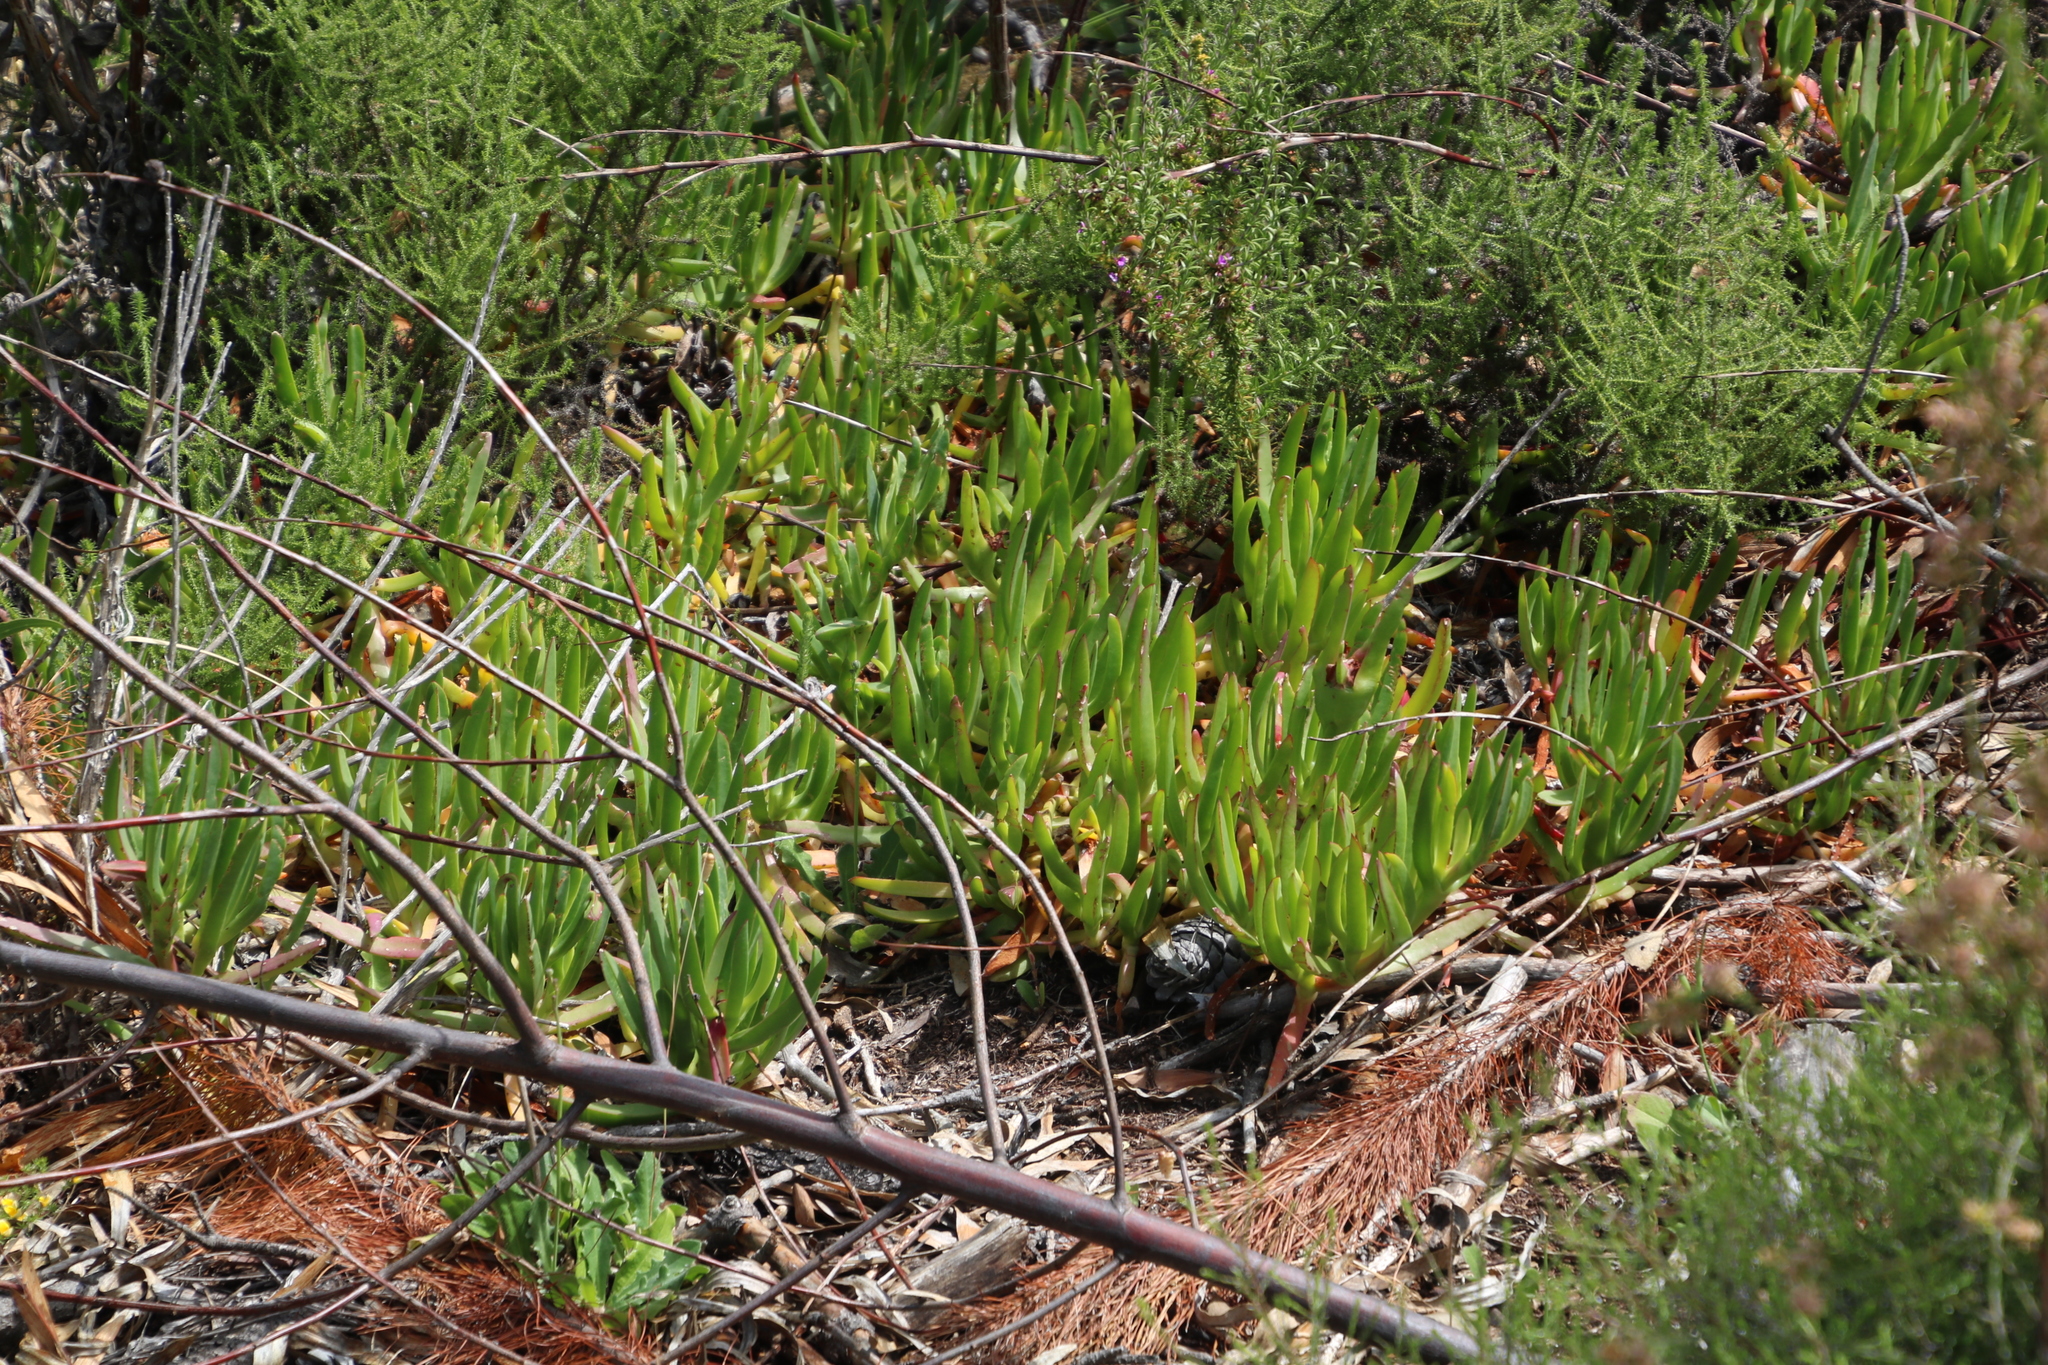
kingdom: Plantae
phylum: Tracheophyta
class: Magnoliopsida
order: Caryophyllales
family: Aizoaceae
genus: Carpobrotus
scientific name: Carpobrotus edulis
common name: Hottentot-fig
